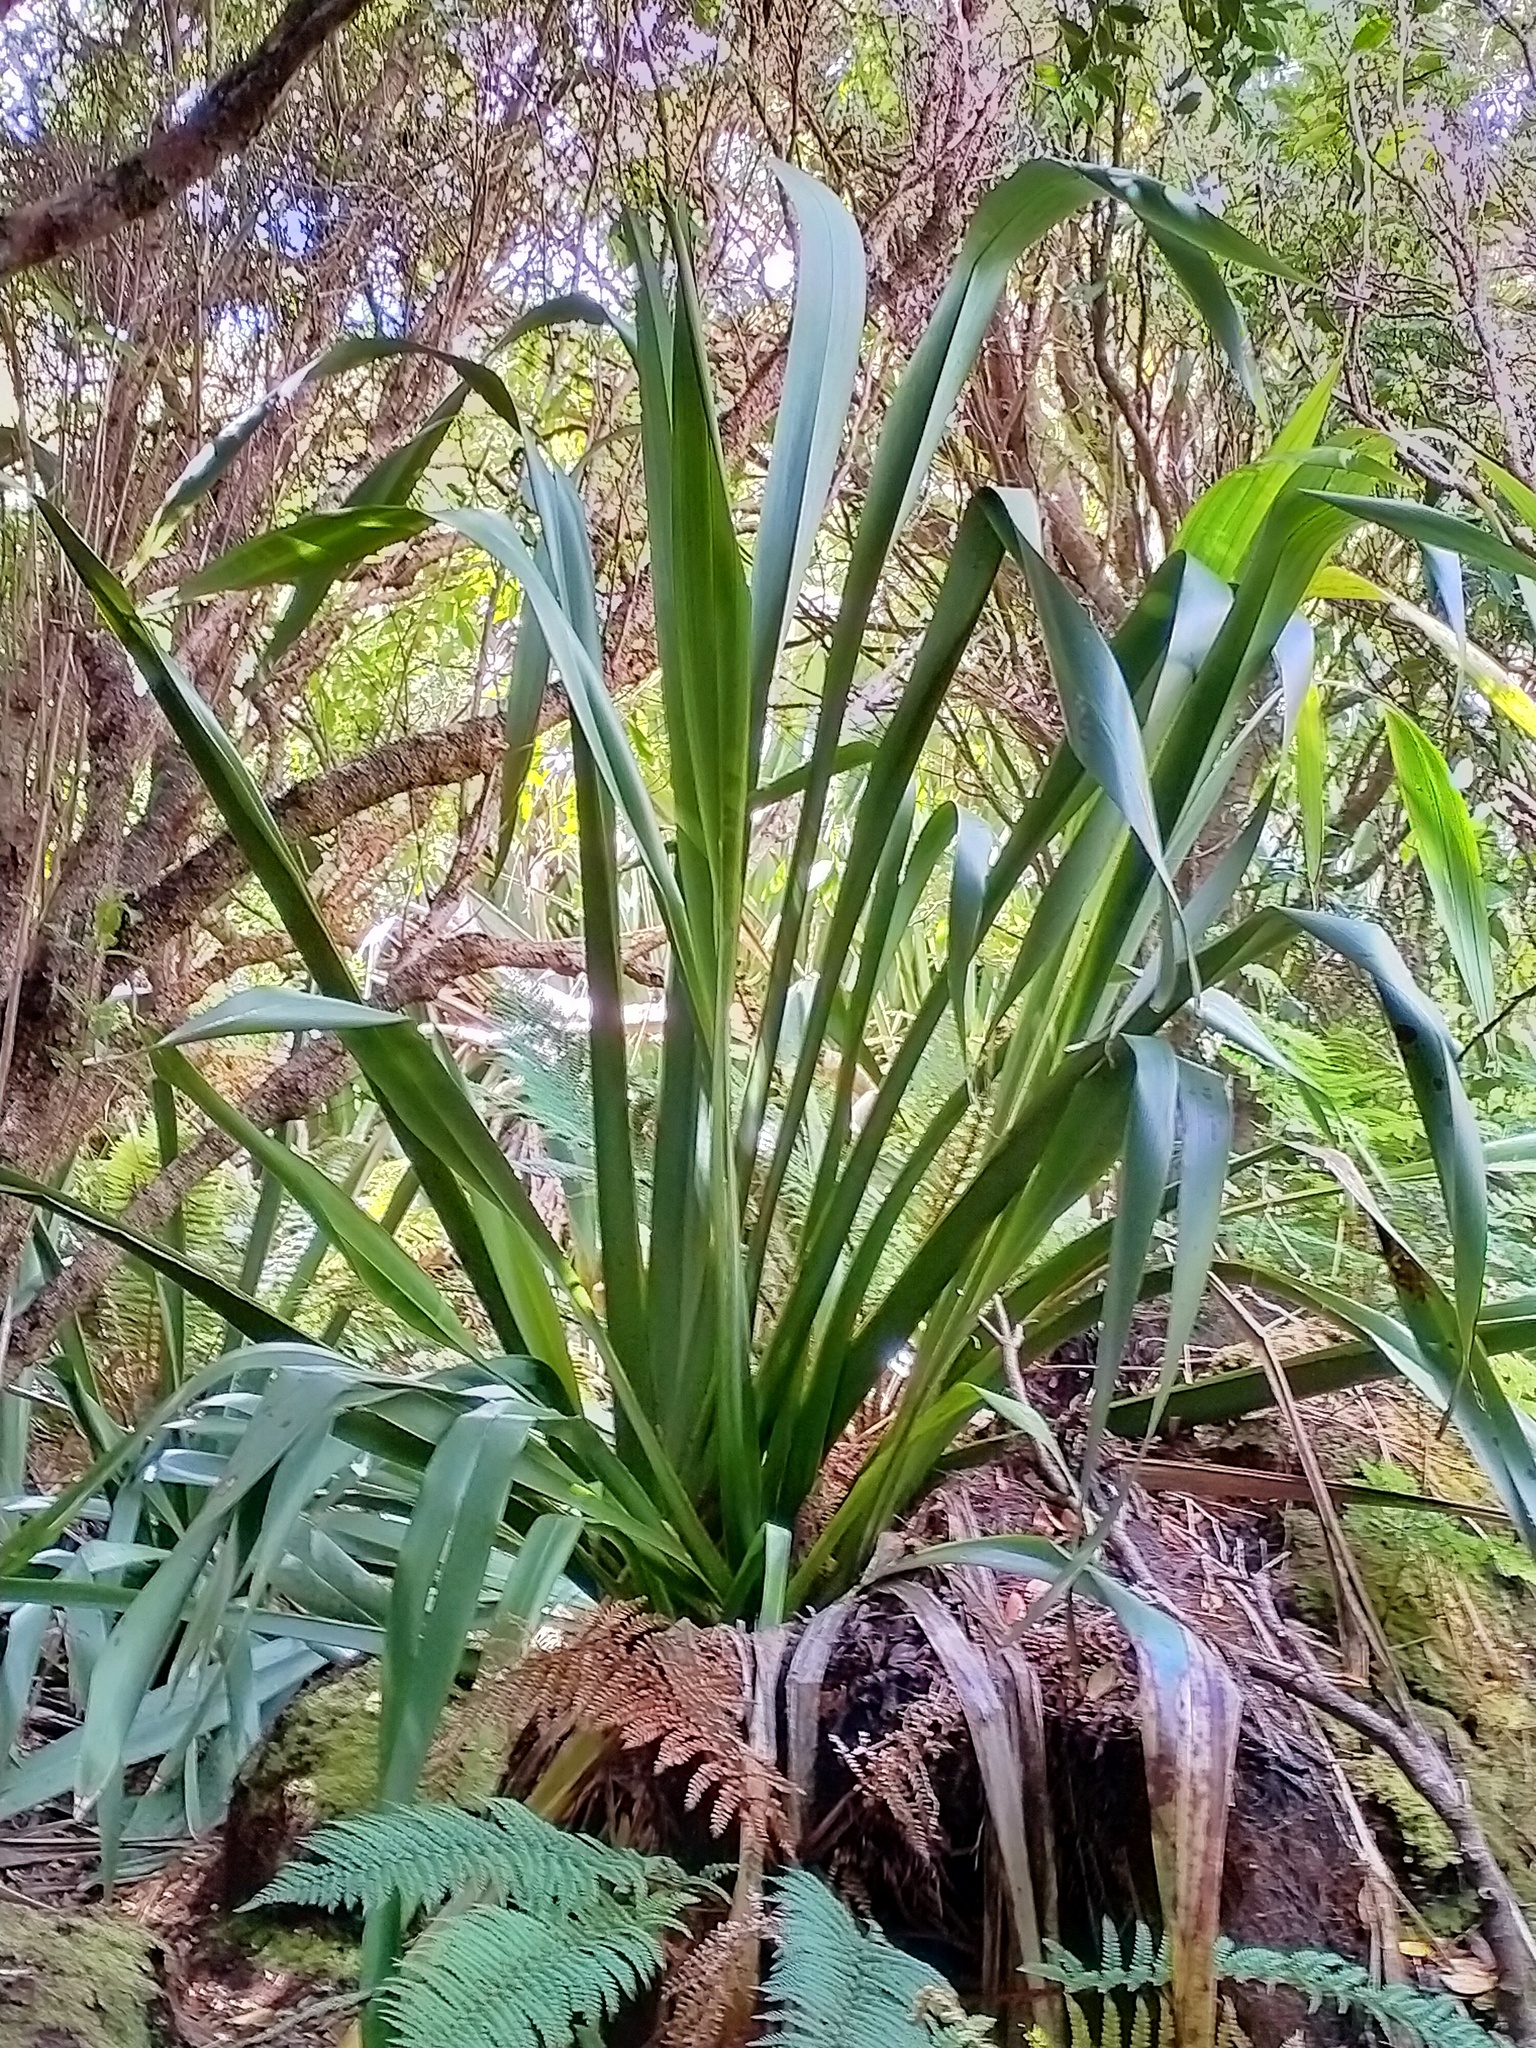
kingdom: Plantae
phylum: Tracheophyta
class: Liliopsida
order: Asparagales
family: Asphodelaceae
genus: Phormium
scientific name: Phormium tenax
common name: New zealand flax
